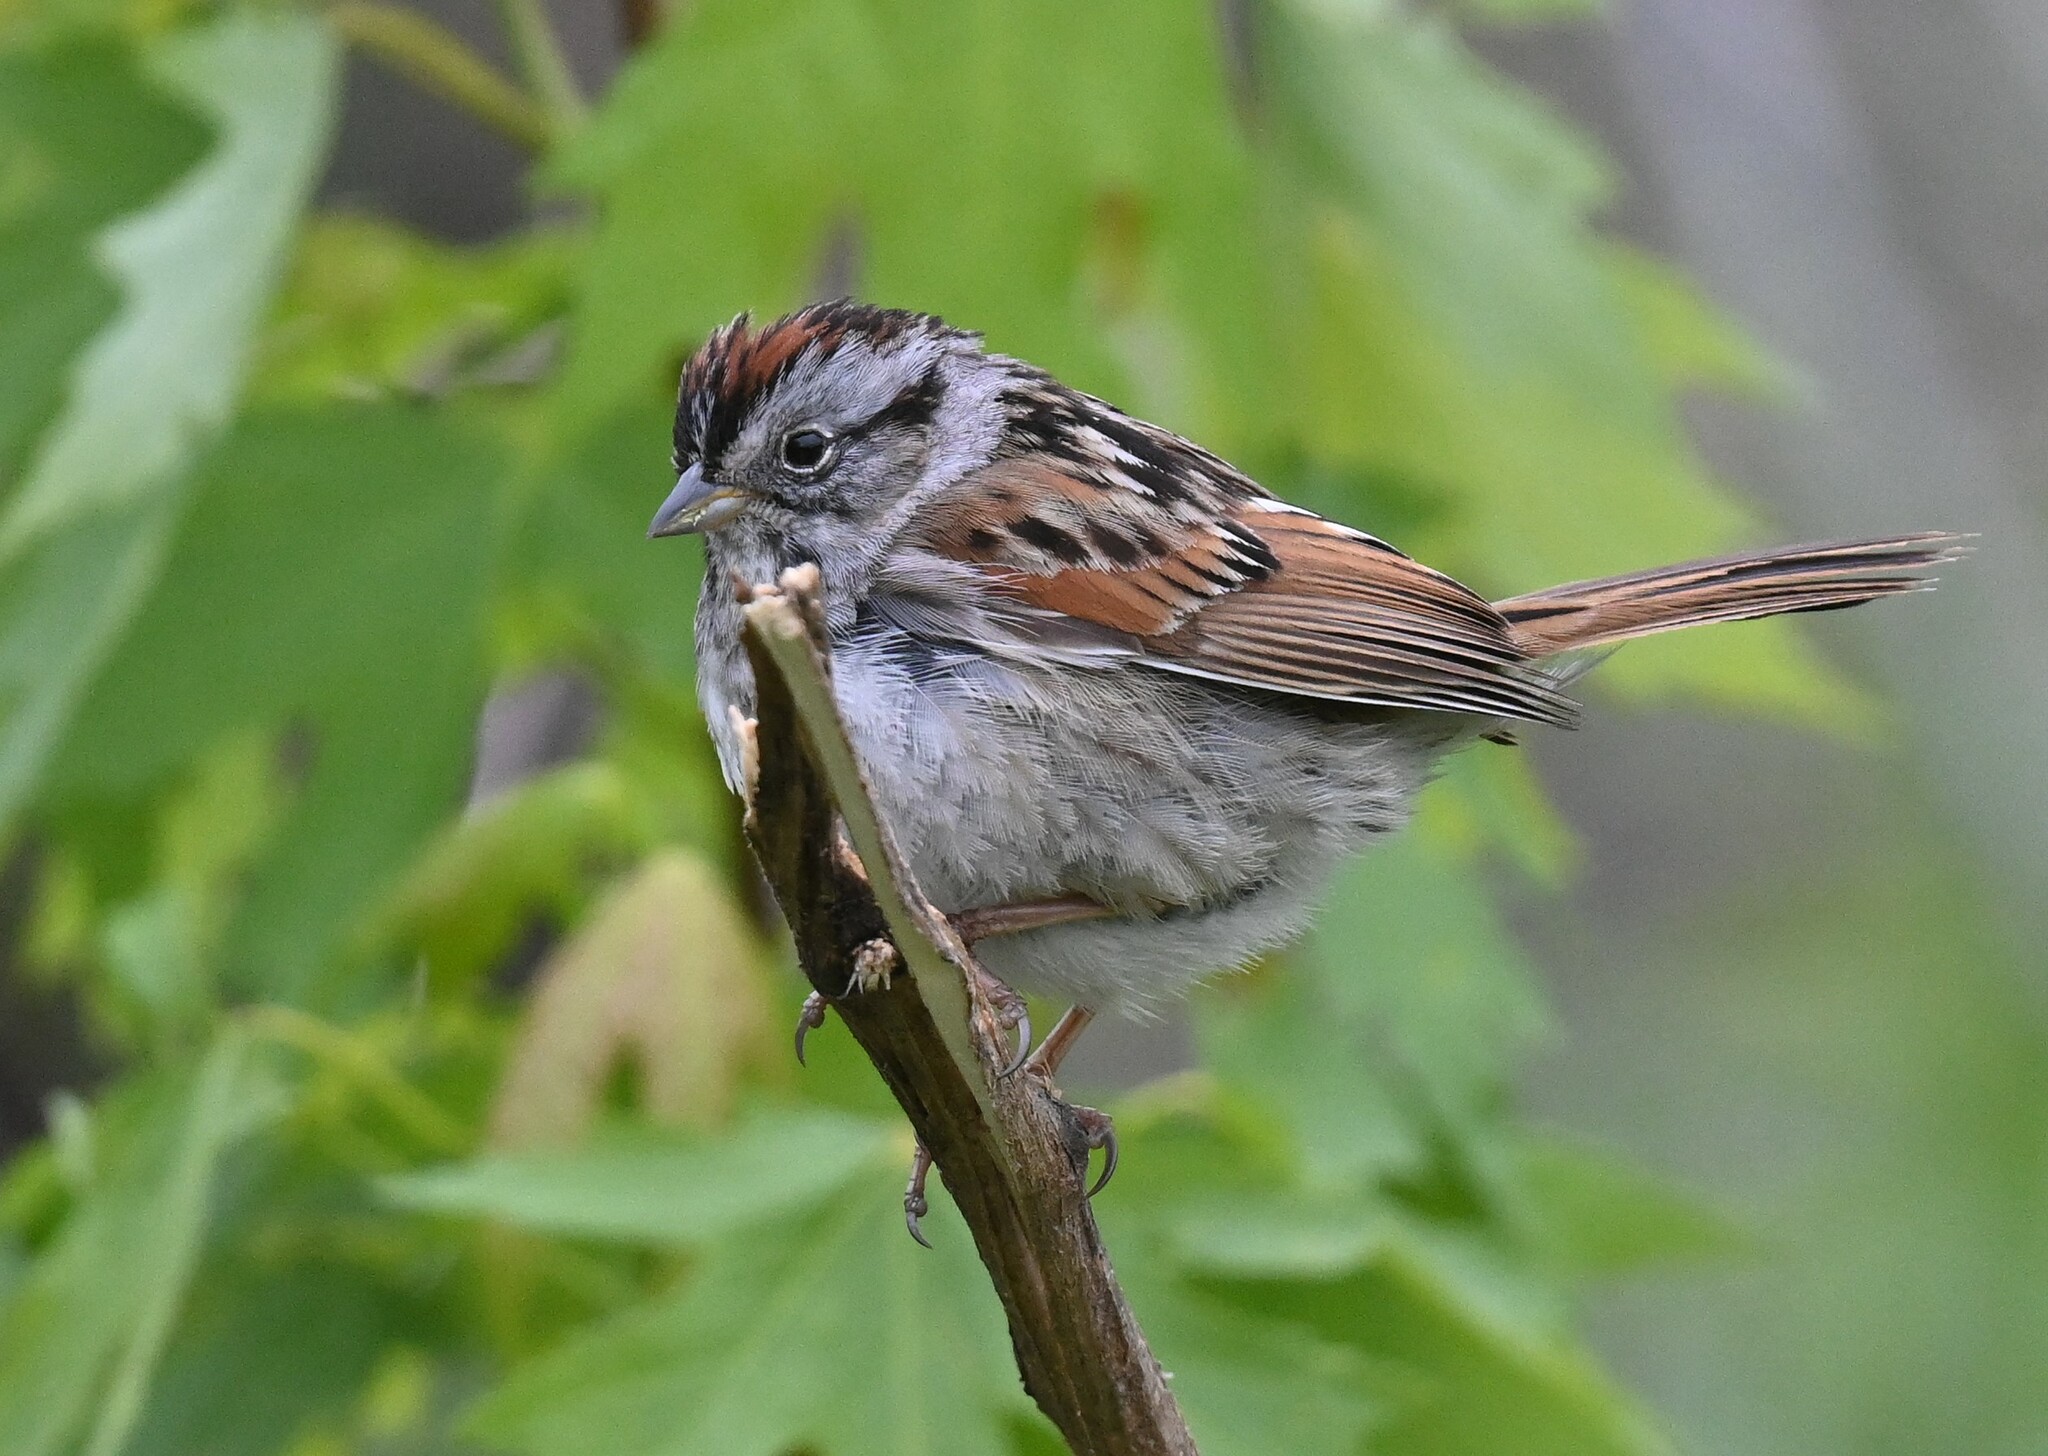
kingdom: Animalia
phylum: Chordata
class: Aves
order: Passeriformes
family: Passerellidae
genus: Melospiza
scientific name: Melospiza georgiana
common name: Swamp sparrow
